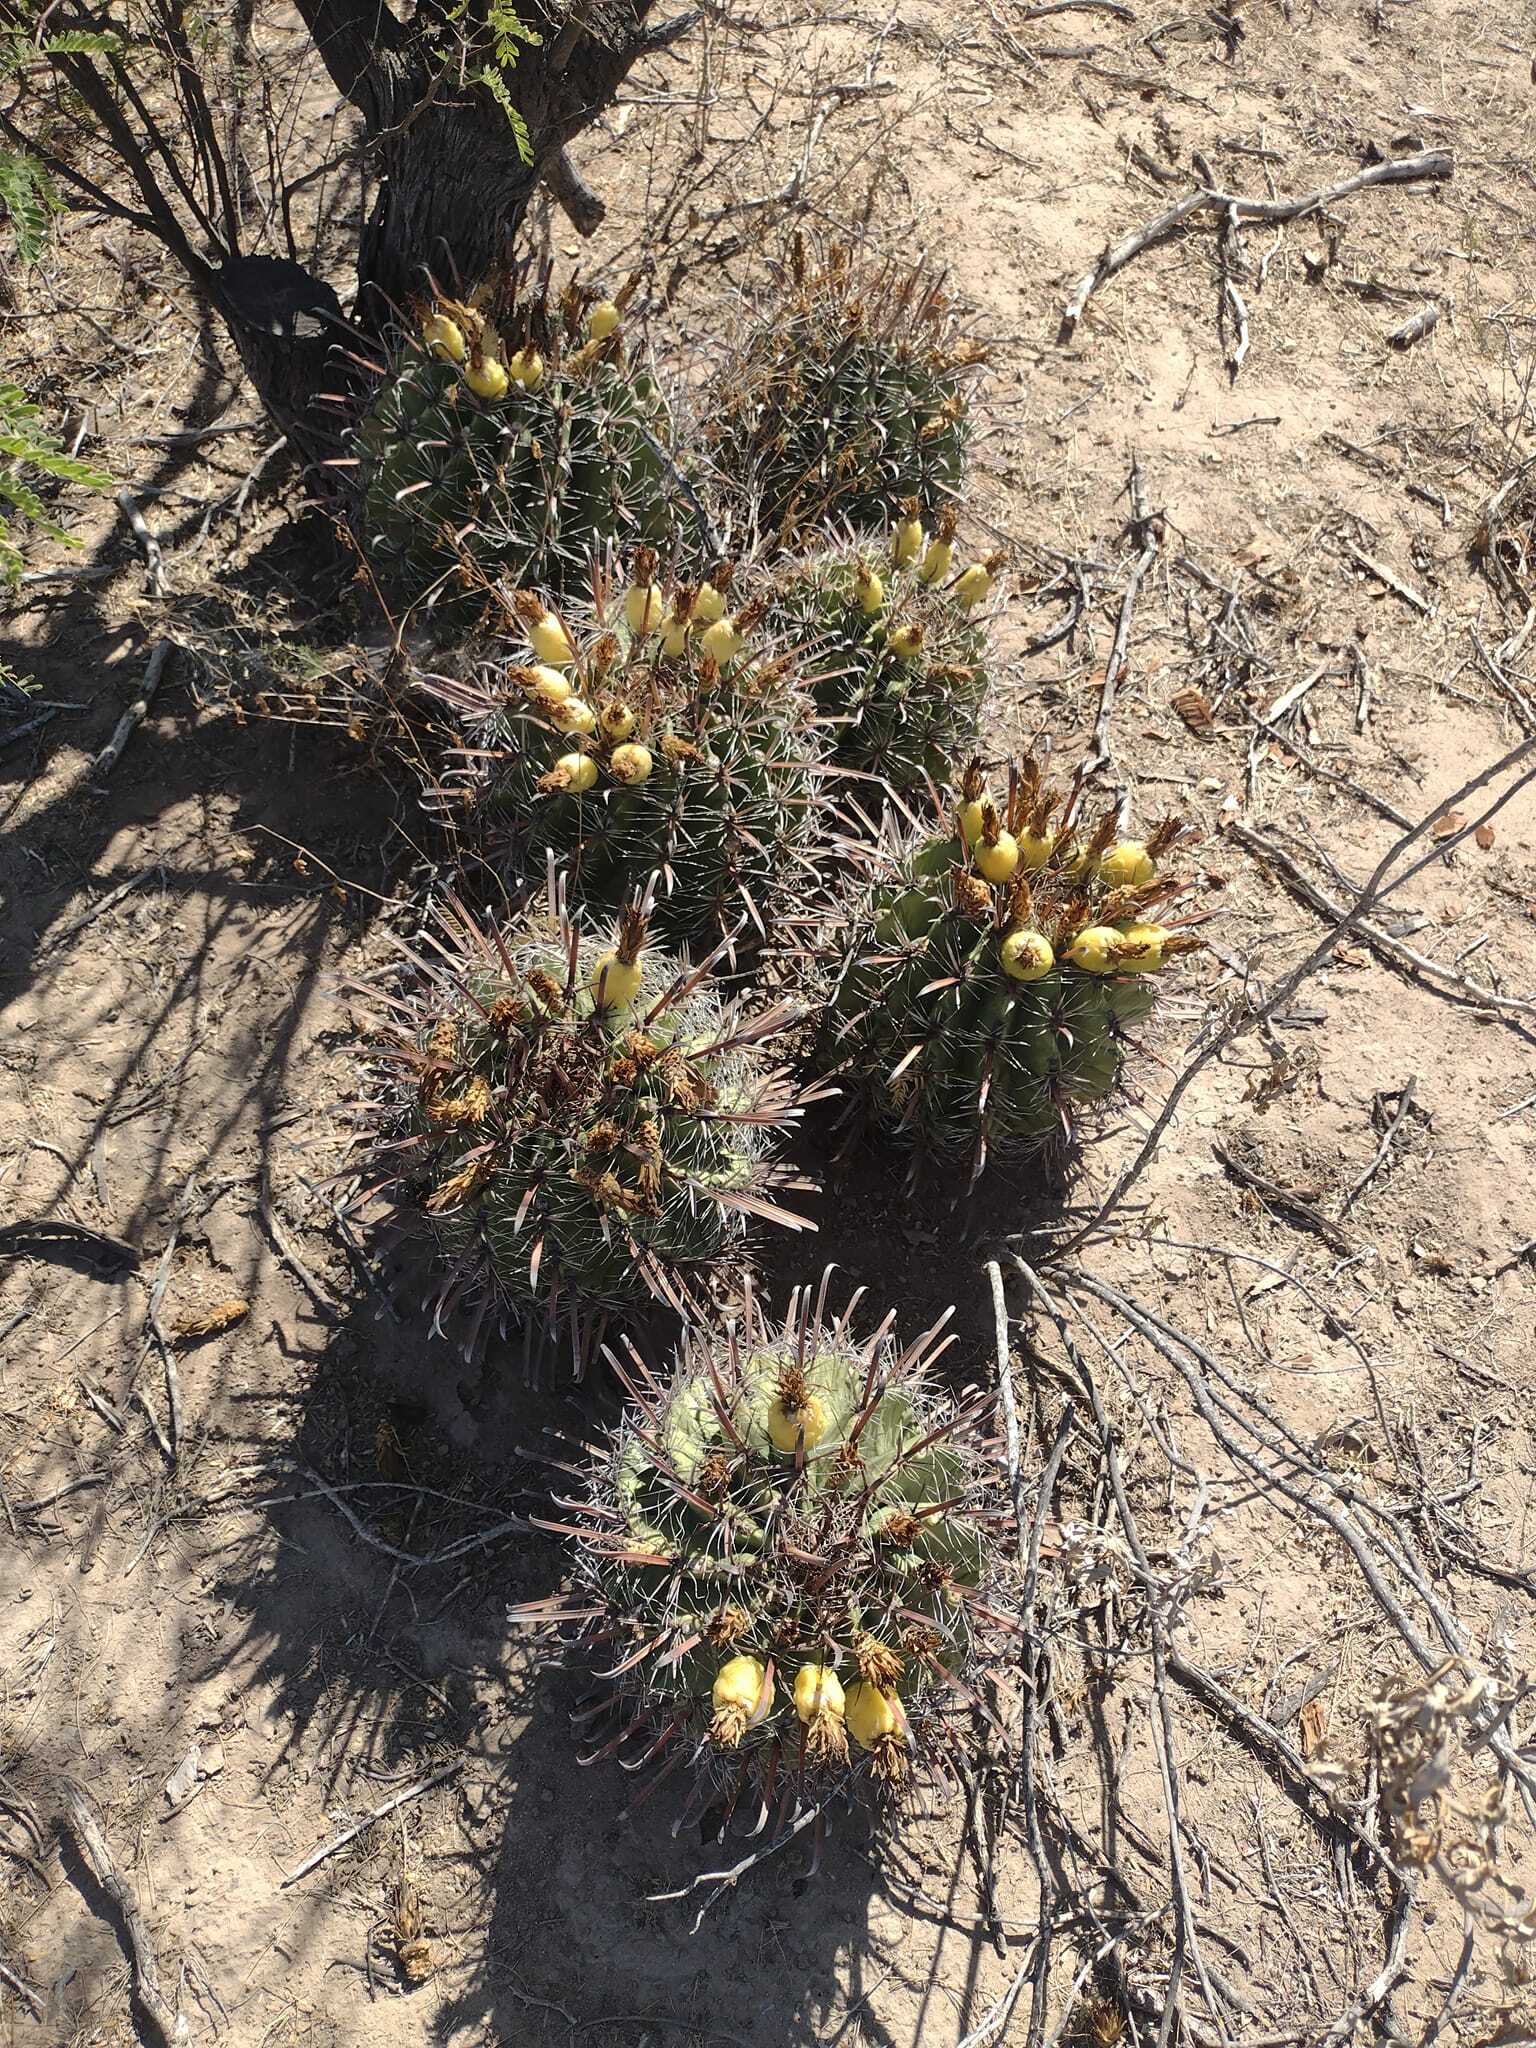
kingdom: Plantae
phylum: Tracheophyta
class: Magnoliopsida
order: Caryophyllales
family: Cactaceae
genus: Ferocactus
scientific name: Ferocactus wislizeni
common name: Candy barrel cactus
